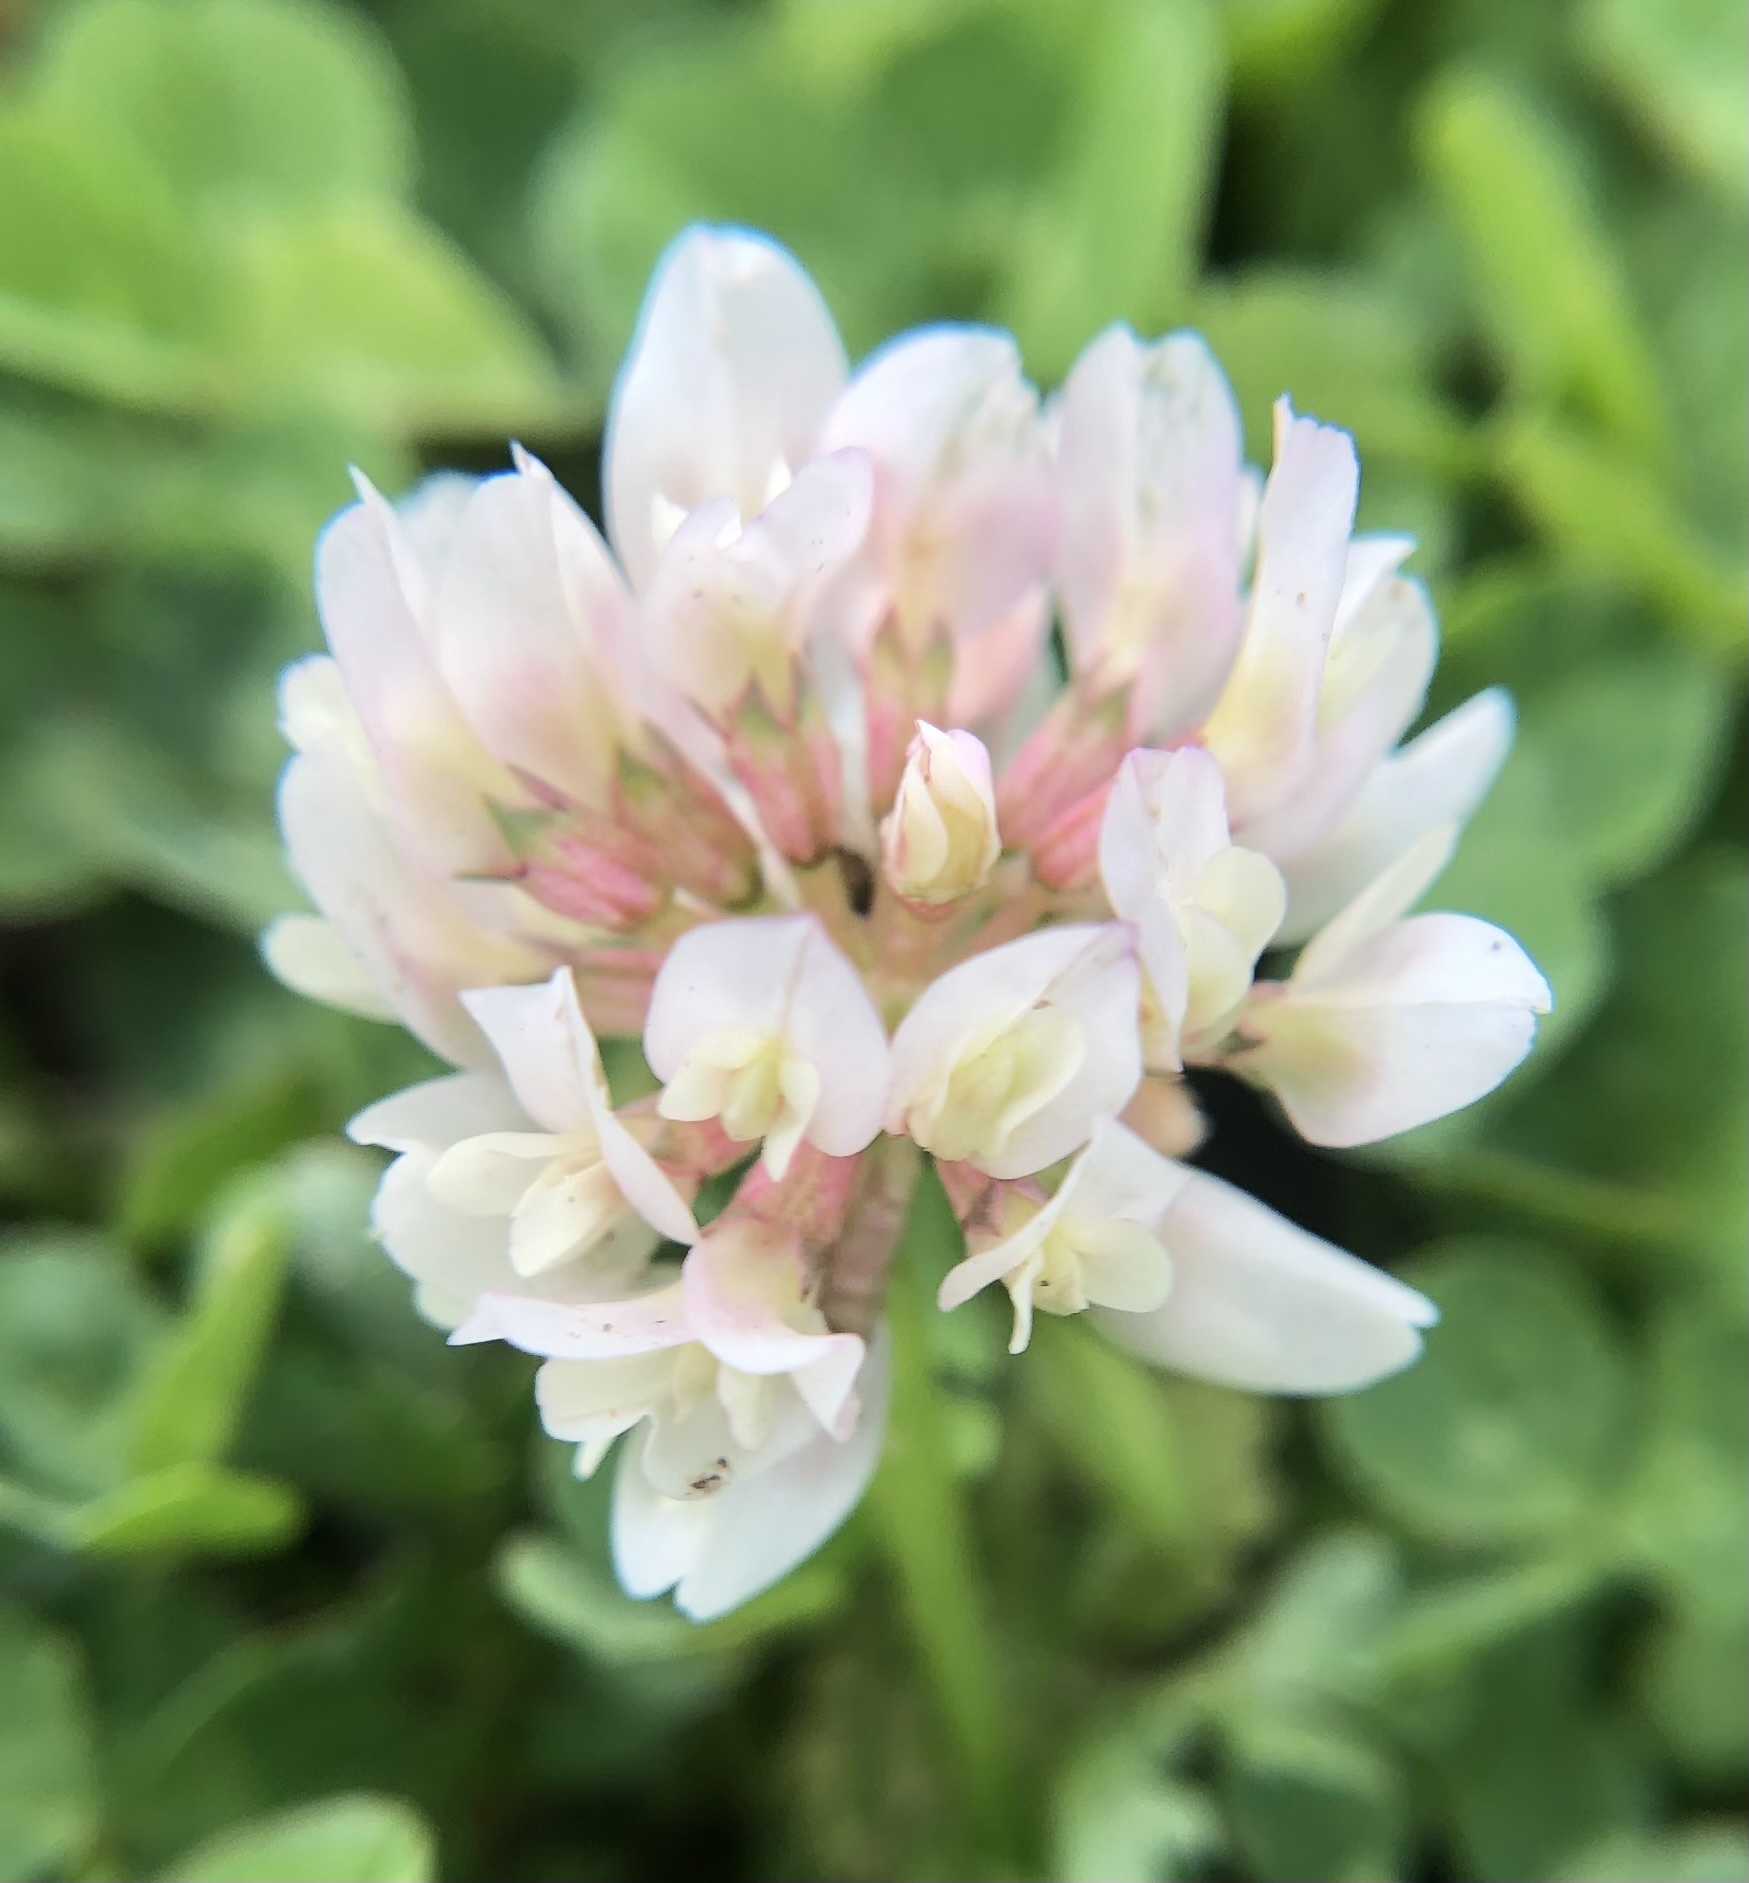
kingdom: Plantae
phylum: Tracheophyta
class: Magnoliopsida
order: Fabales
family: Fabaceae
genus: Trifolium
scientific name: Trifolium repens
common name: White clover
